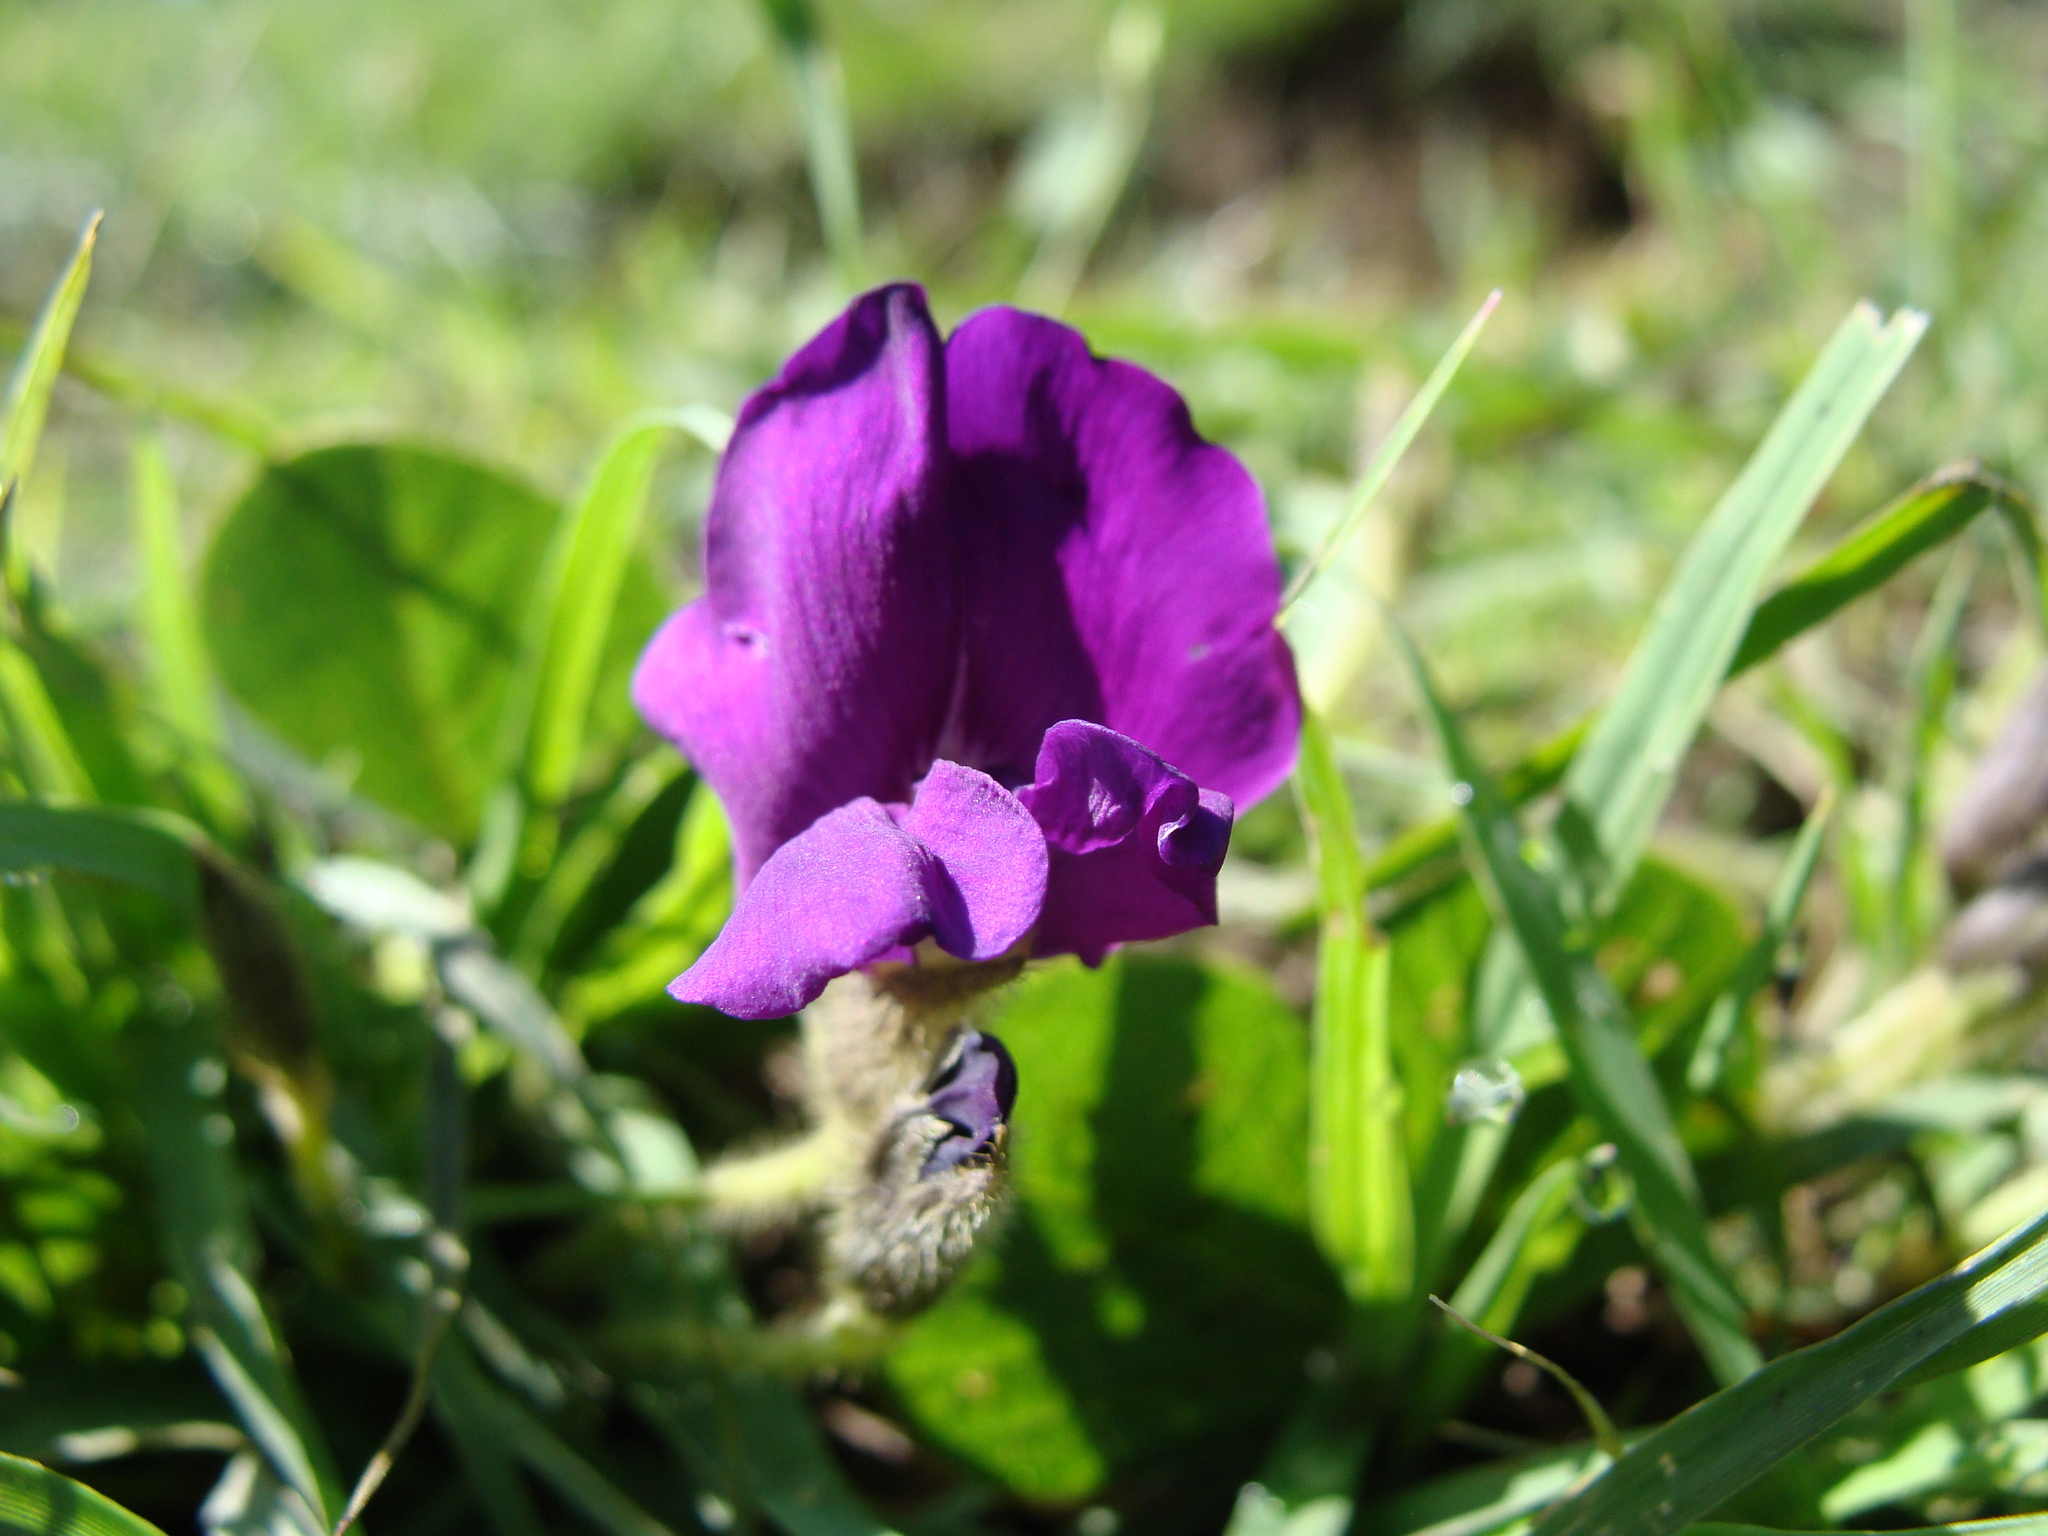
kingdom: Plantae
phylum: Tracheophyta
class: Magnoliopsida
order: Fabales
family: Fabaceae
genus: Cologania
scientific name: Cologania obovata
